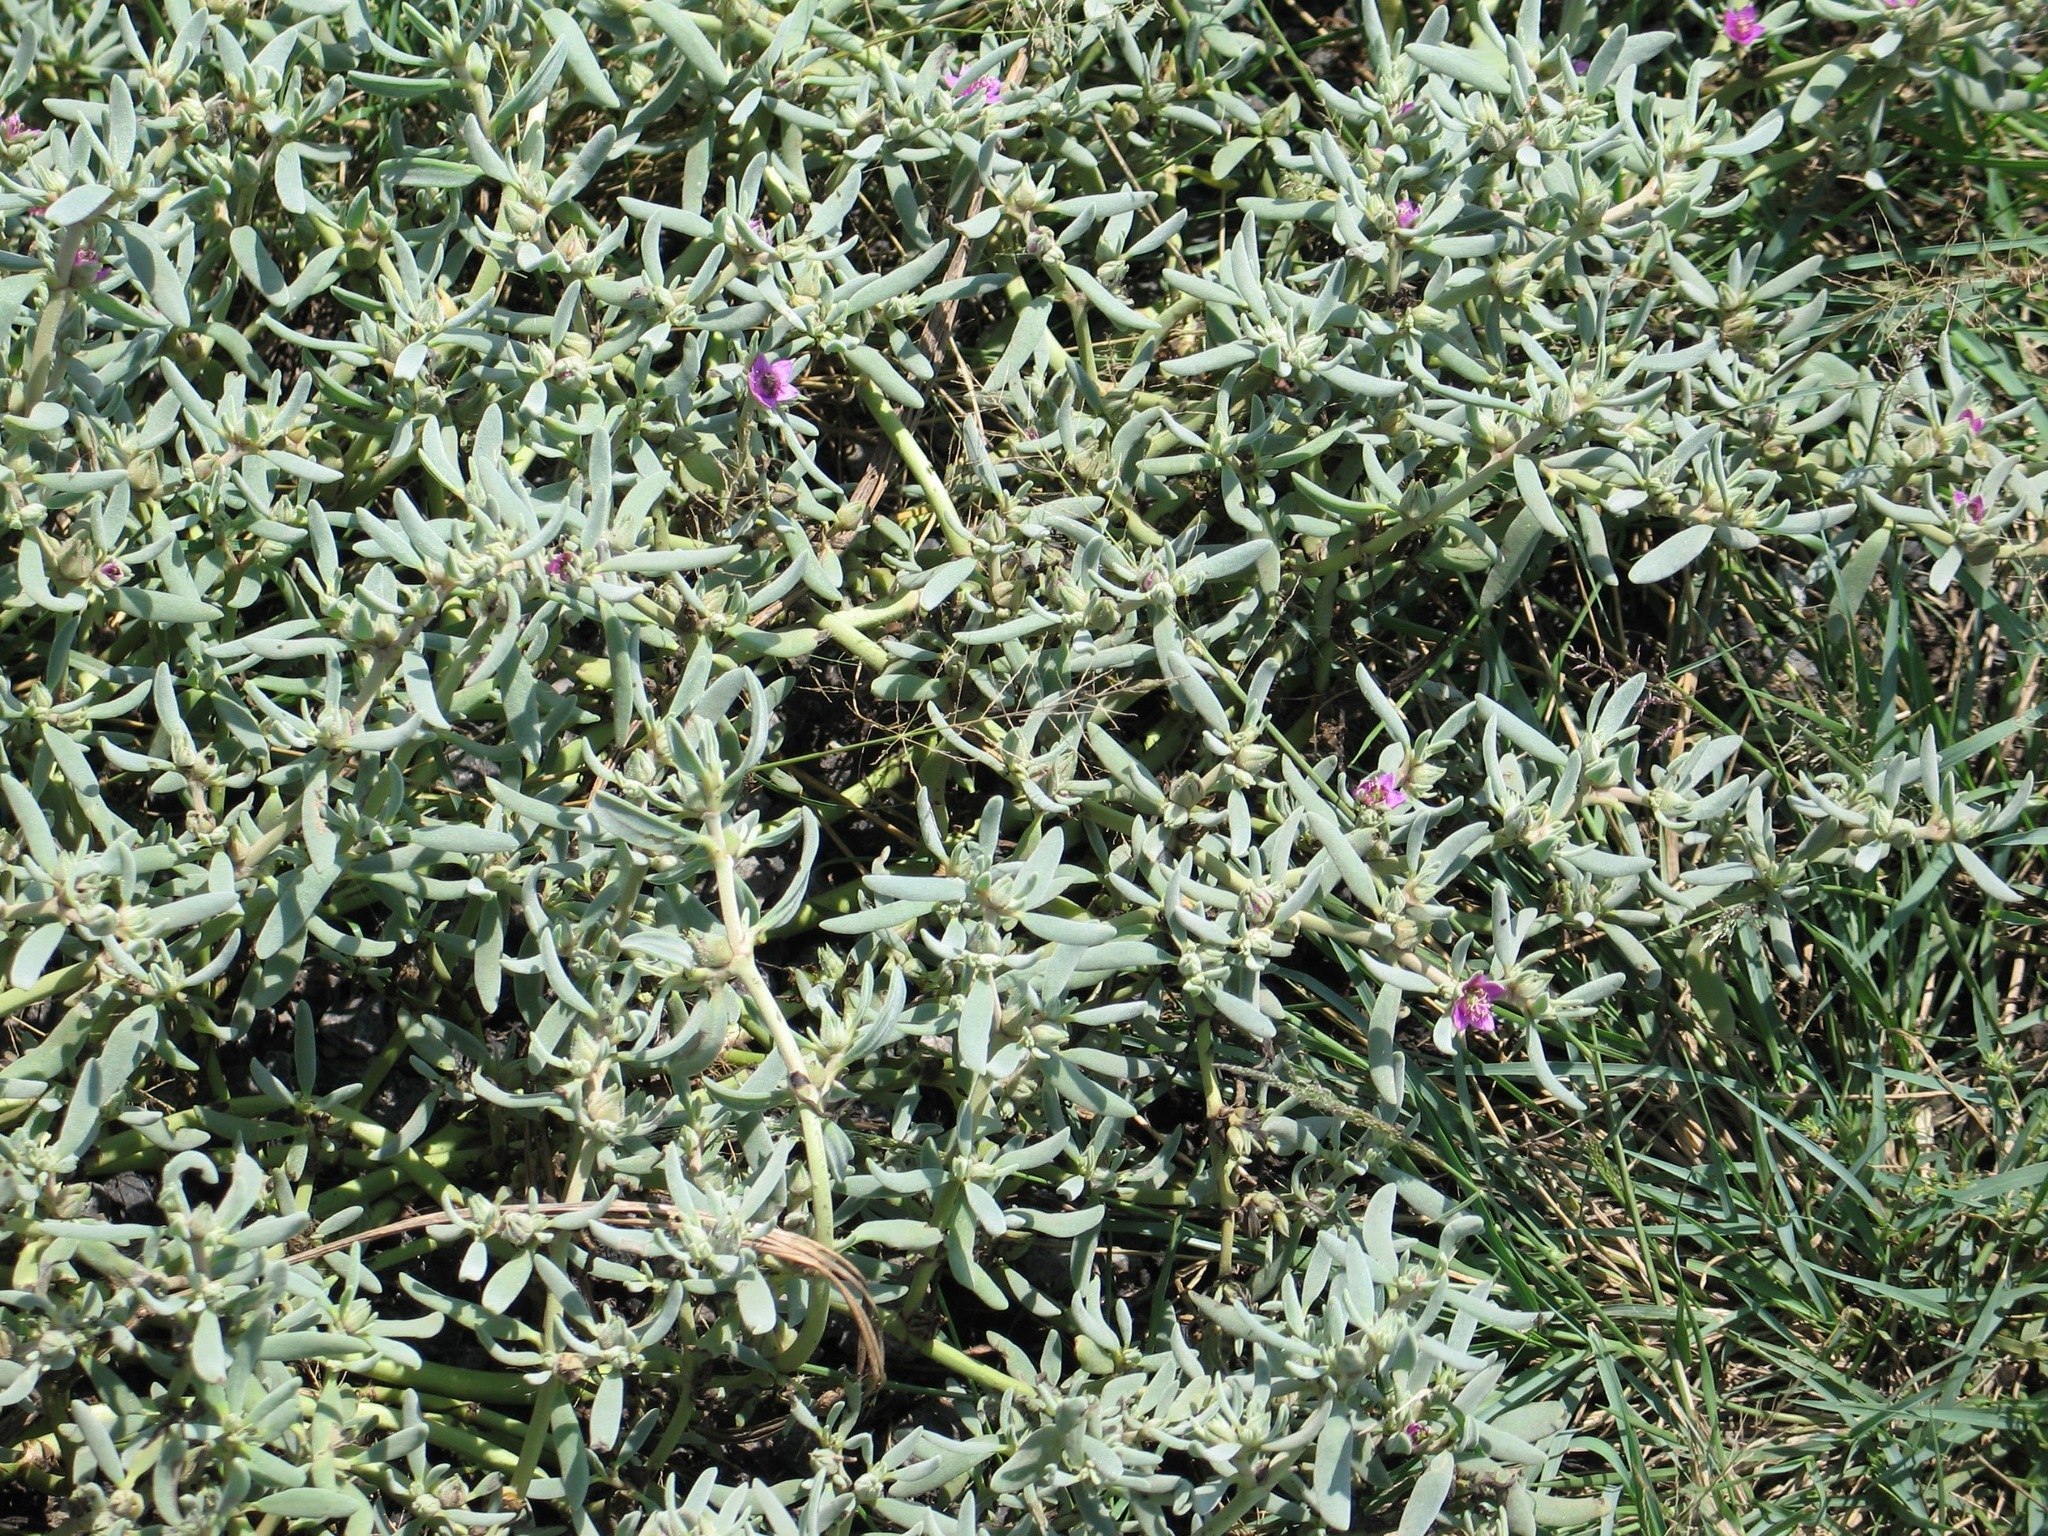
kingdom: Plantae
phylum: Tracheophyta
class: Magnoliopsida
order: Caryophyllales
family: Aizoaceae
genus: Sesuvium
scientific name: Sesuvium portulacastrum
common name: Sea-purslane
